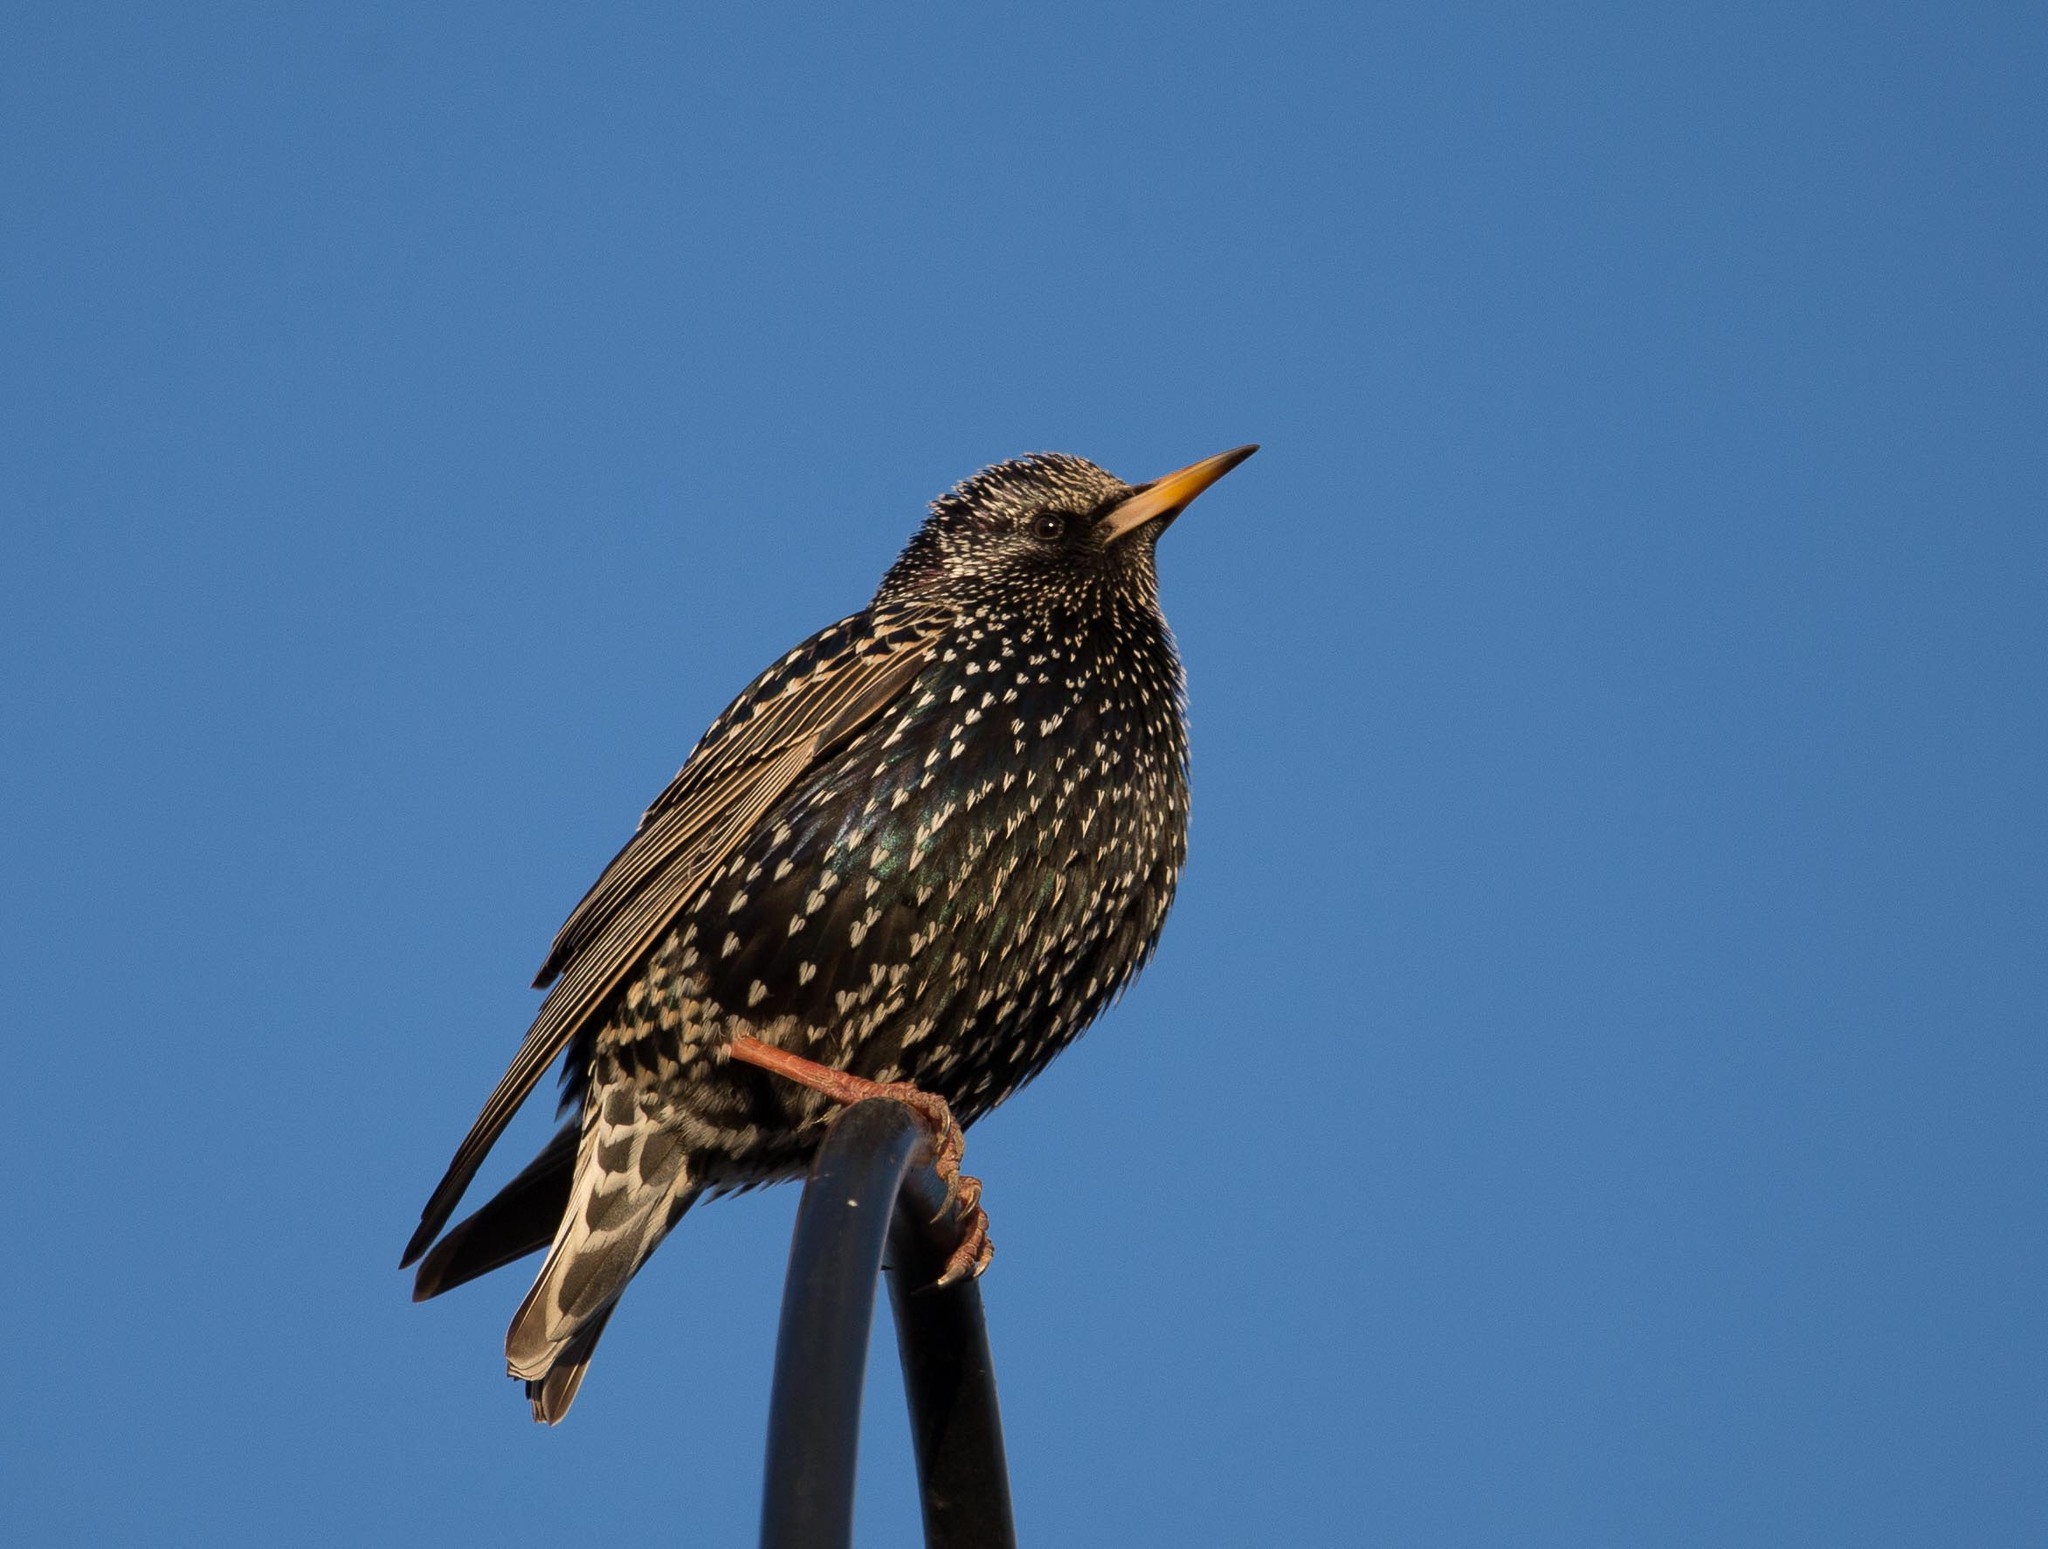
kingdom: Animalia
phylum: Chordata
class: Aves
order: Passeriformes
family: Sturnidae
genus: Sturnus
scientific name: Sturnus vulgaris
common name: Common starling
